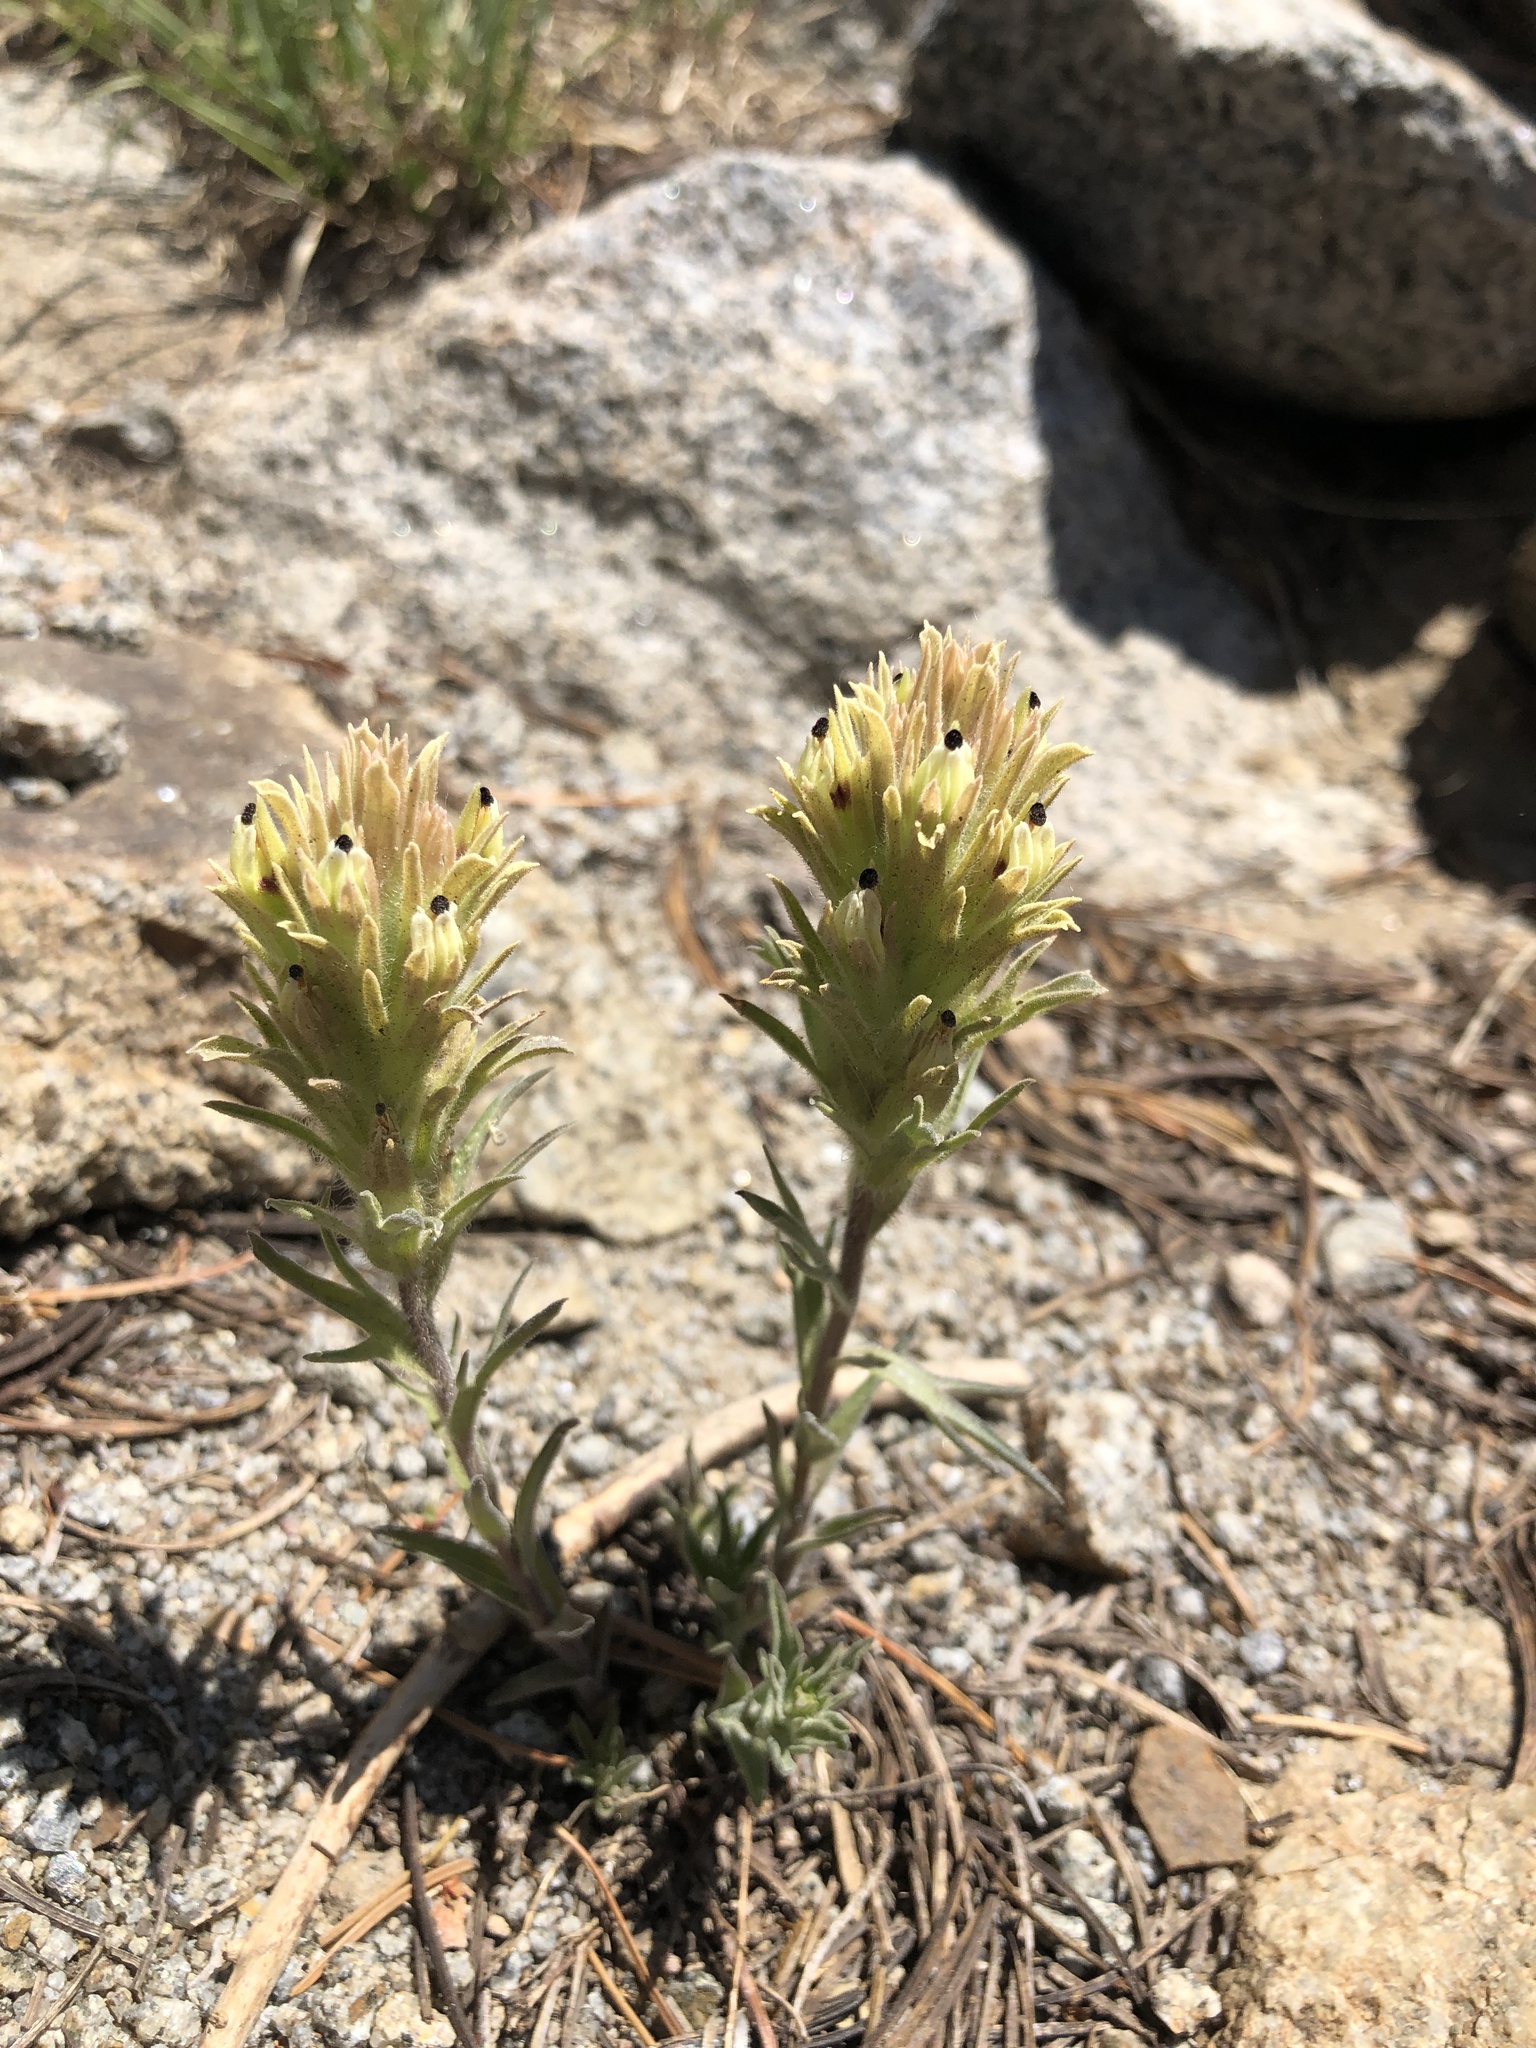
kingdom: Plantae
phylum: Tracheophyta
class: Magnoliopsida
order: Lamiales
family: Orobanchaceae
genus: Castilleja
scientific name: Castilleja nana
